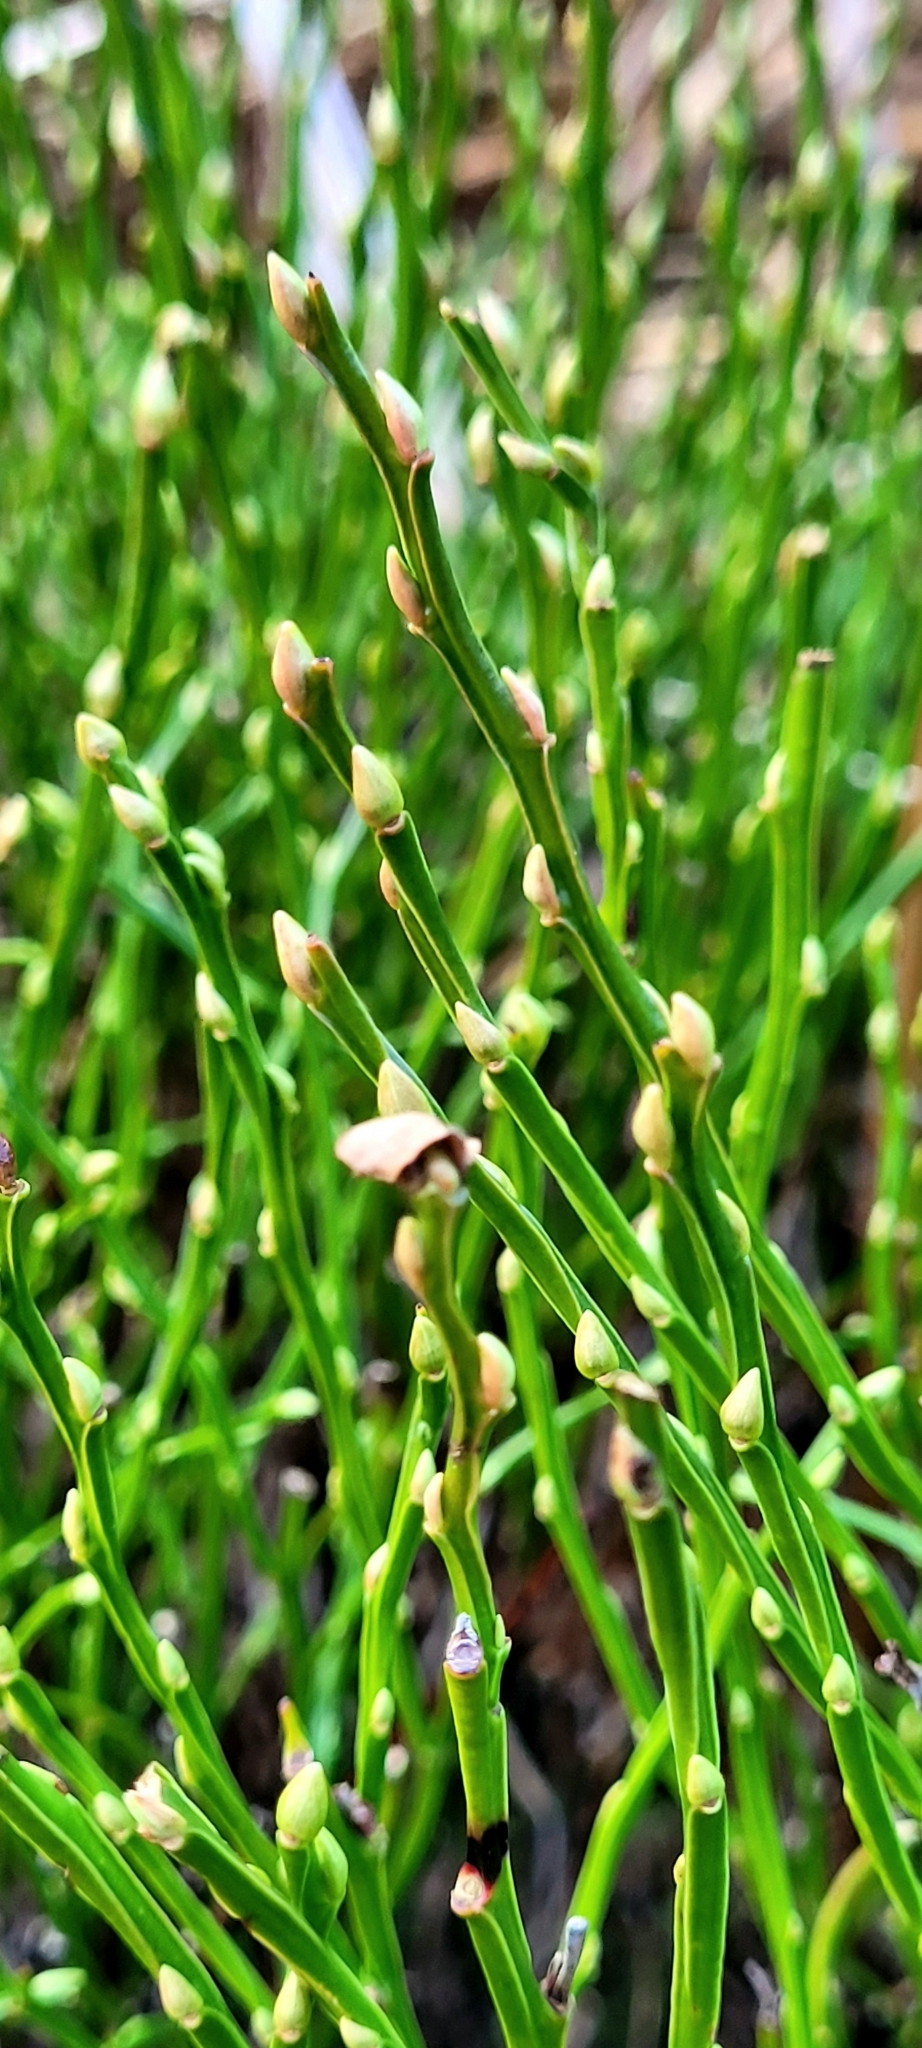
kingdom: Plantae
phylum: Tracheophyta
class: Magnoliopsida
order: Ericales
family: Ericaceae
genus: Vaccinium
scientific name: Vaccinium myrtillus
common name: Bilberry
